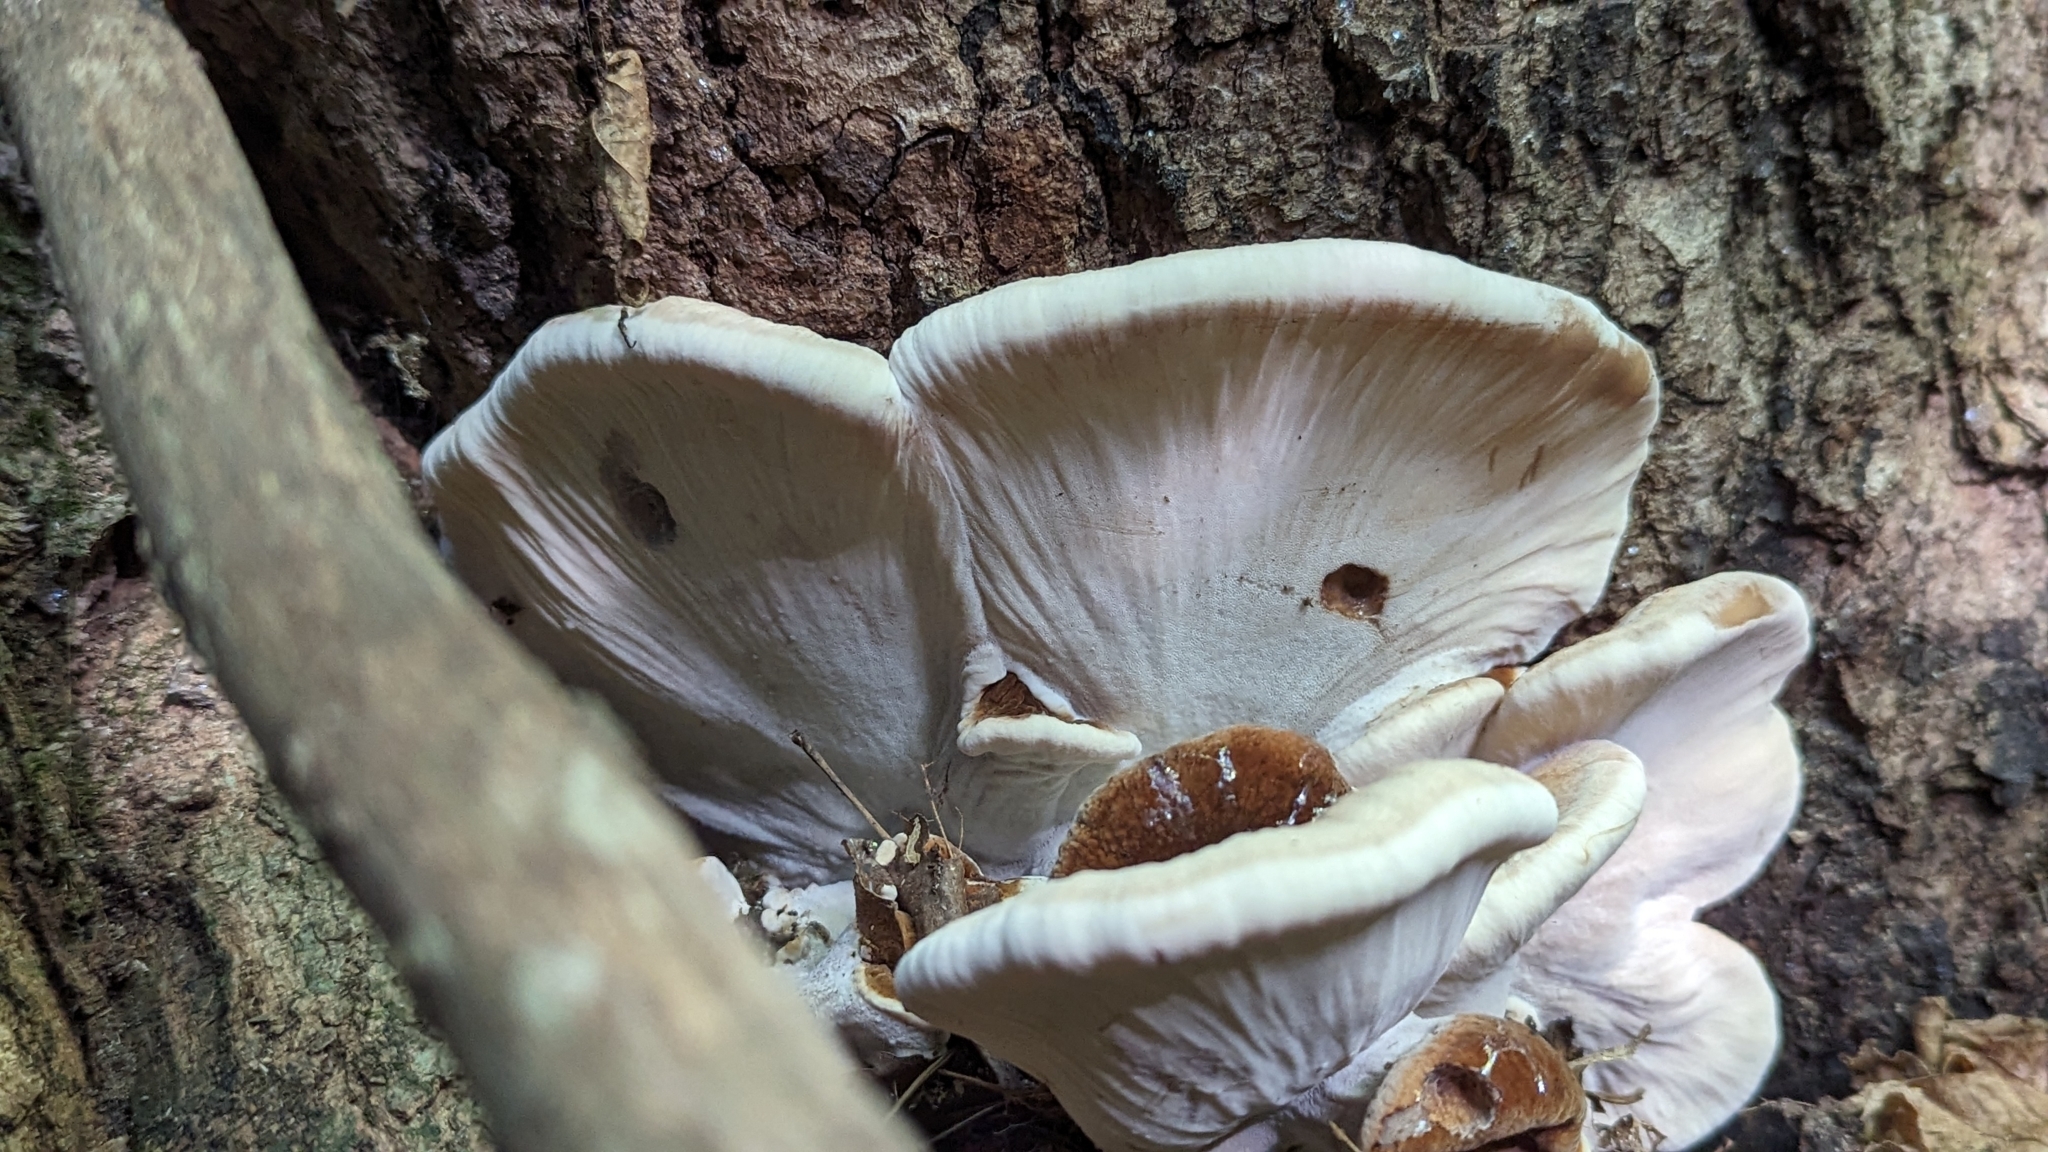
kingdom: Fungi
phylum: Basidiomycota
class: Agaricomycetes
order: Polyporales
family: Ischnodermataceae
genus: Ischnoderma
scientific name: Ischnoderma resinosum
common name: Resinous polypore
